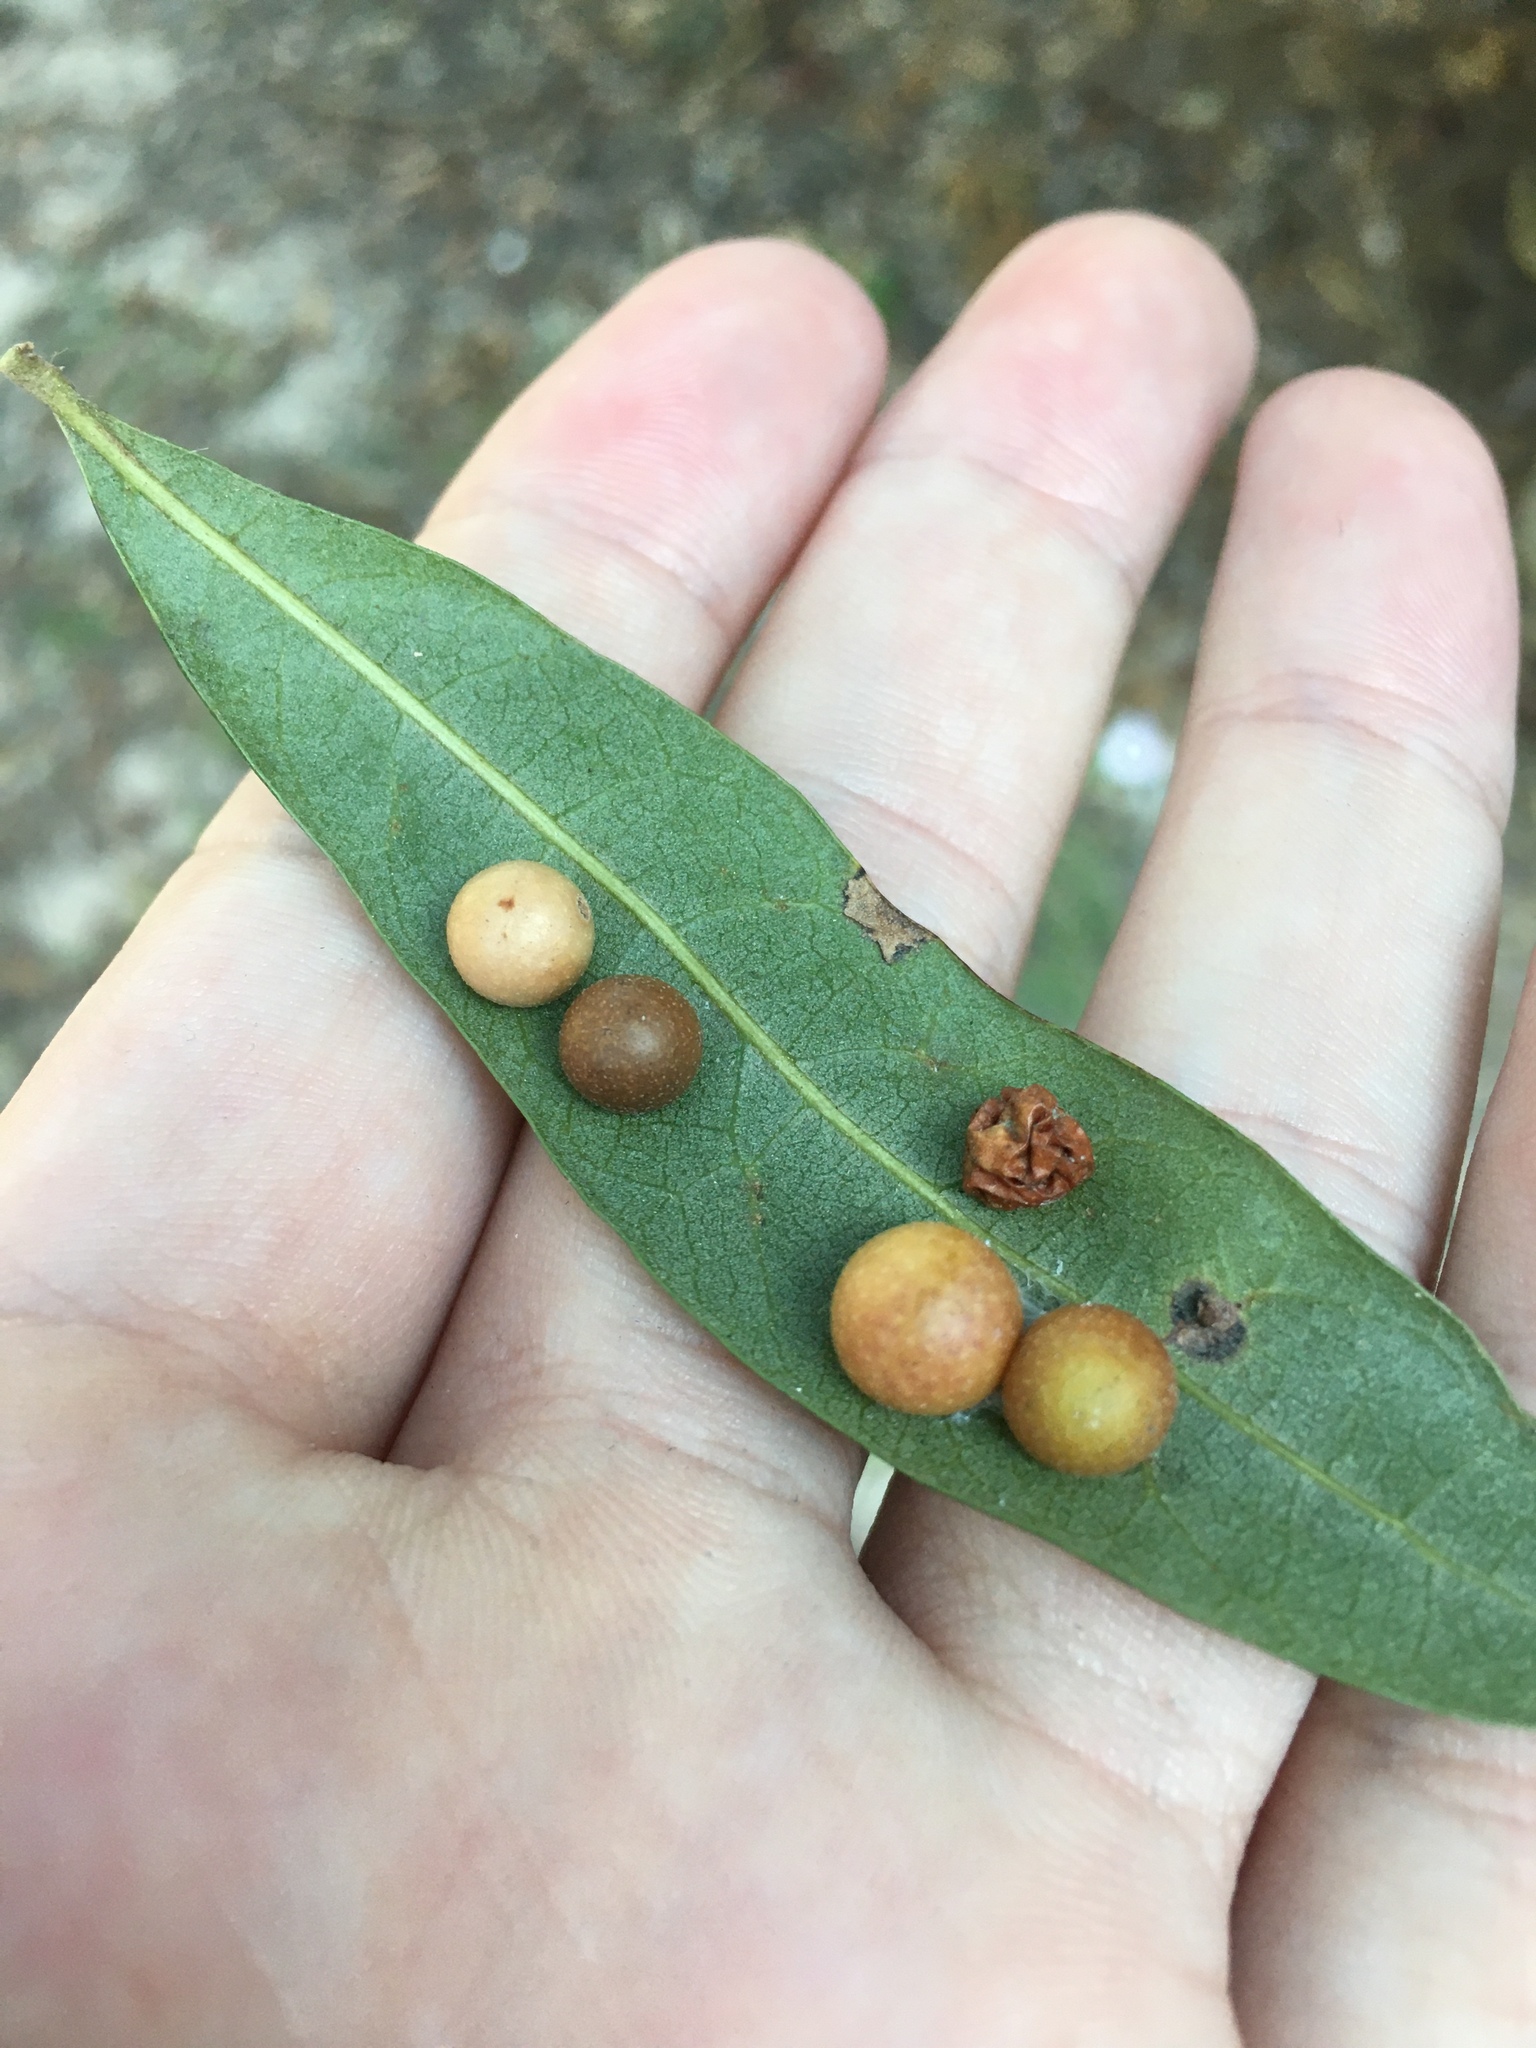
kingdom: Animalia
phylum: Arthropoda
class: Insecta
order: Hymenoptera
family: Cynipidae
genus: Belonocnema
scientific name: Belonocnema kinseyi
